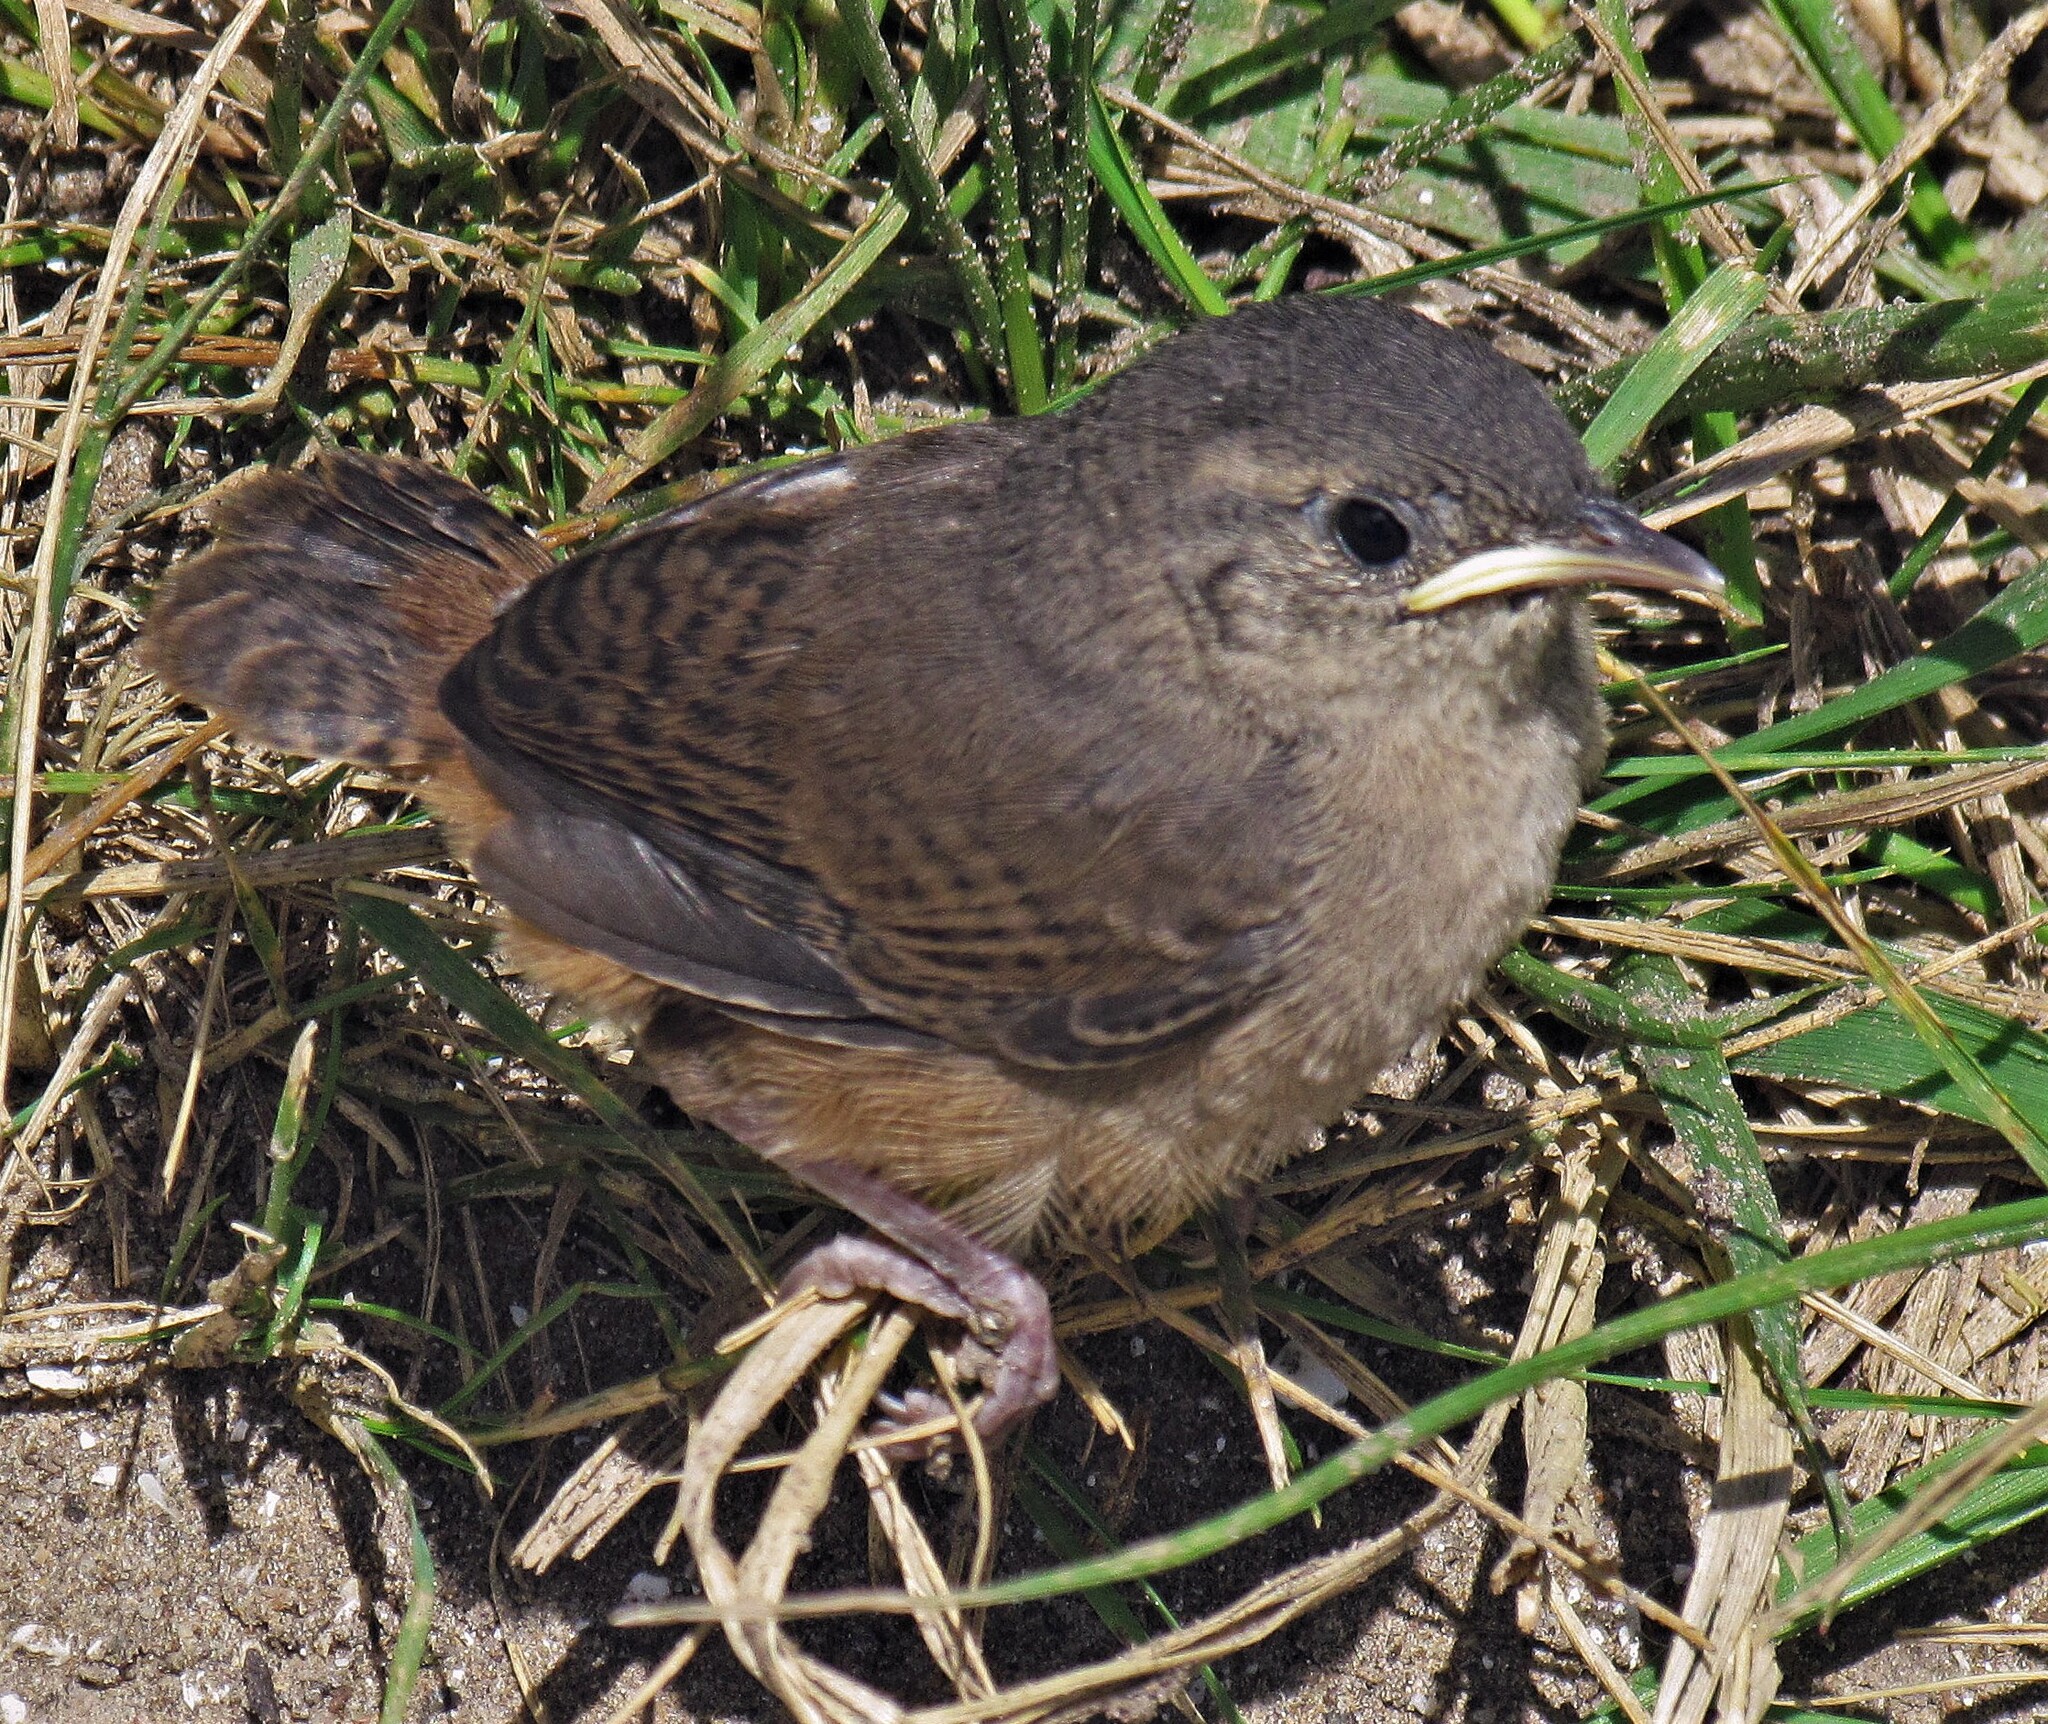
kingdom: Animalia
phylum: Chordata
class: Aves
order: Passeriformes
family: Troglodytidae
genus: Troglodytes
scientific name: Troglodytes aedon
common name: House wren
